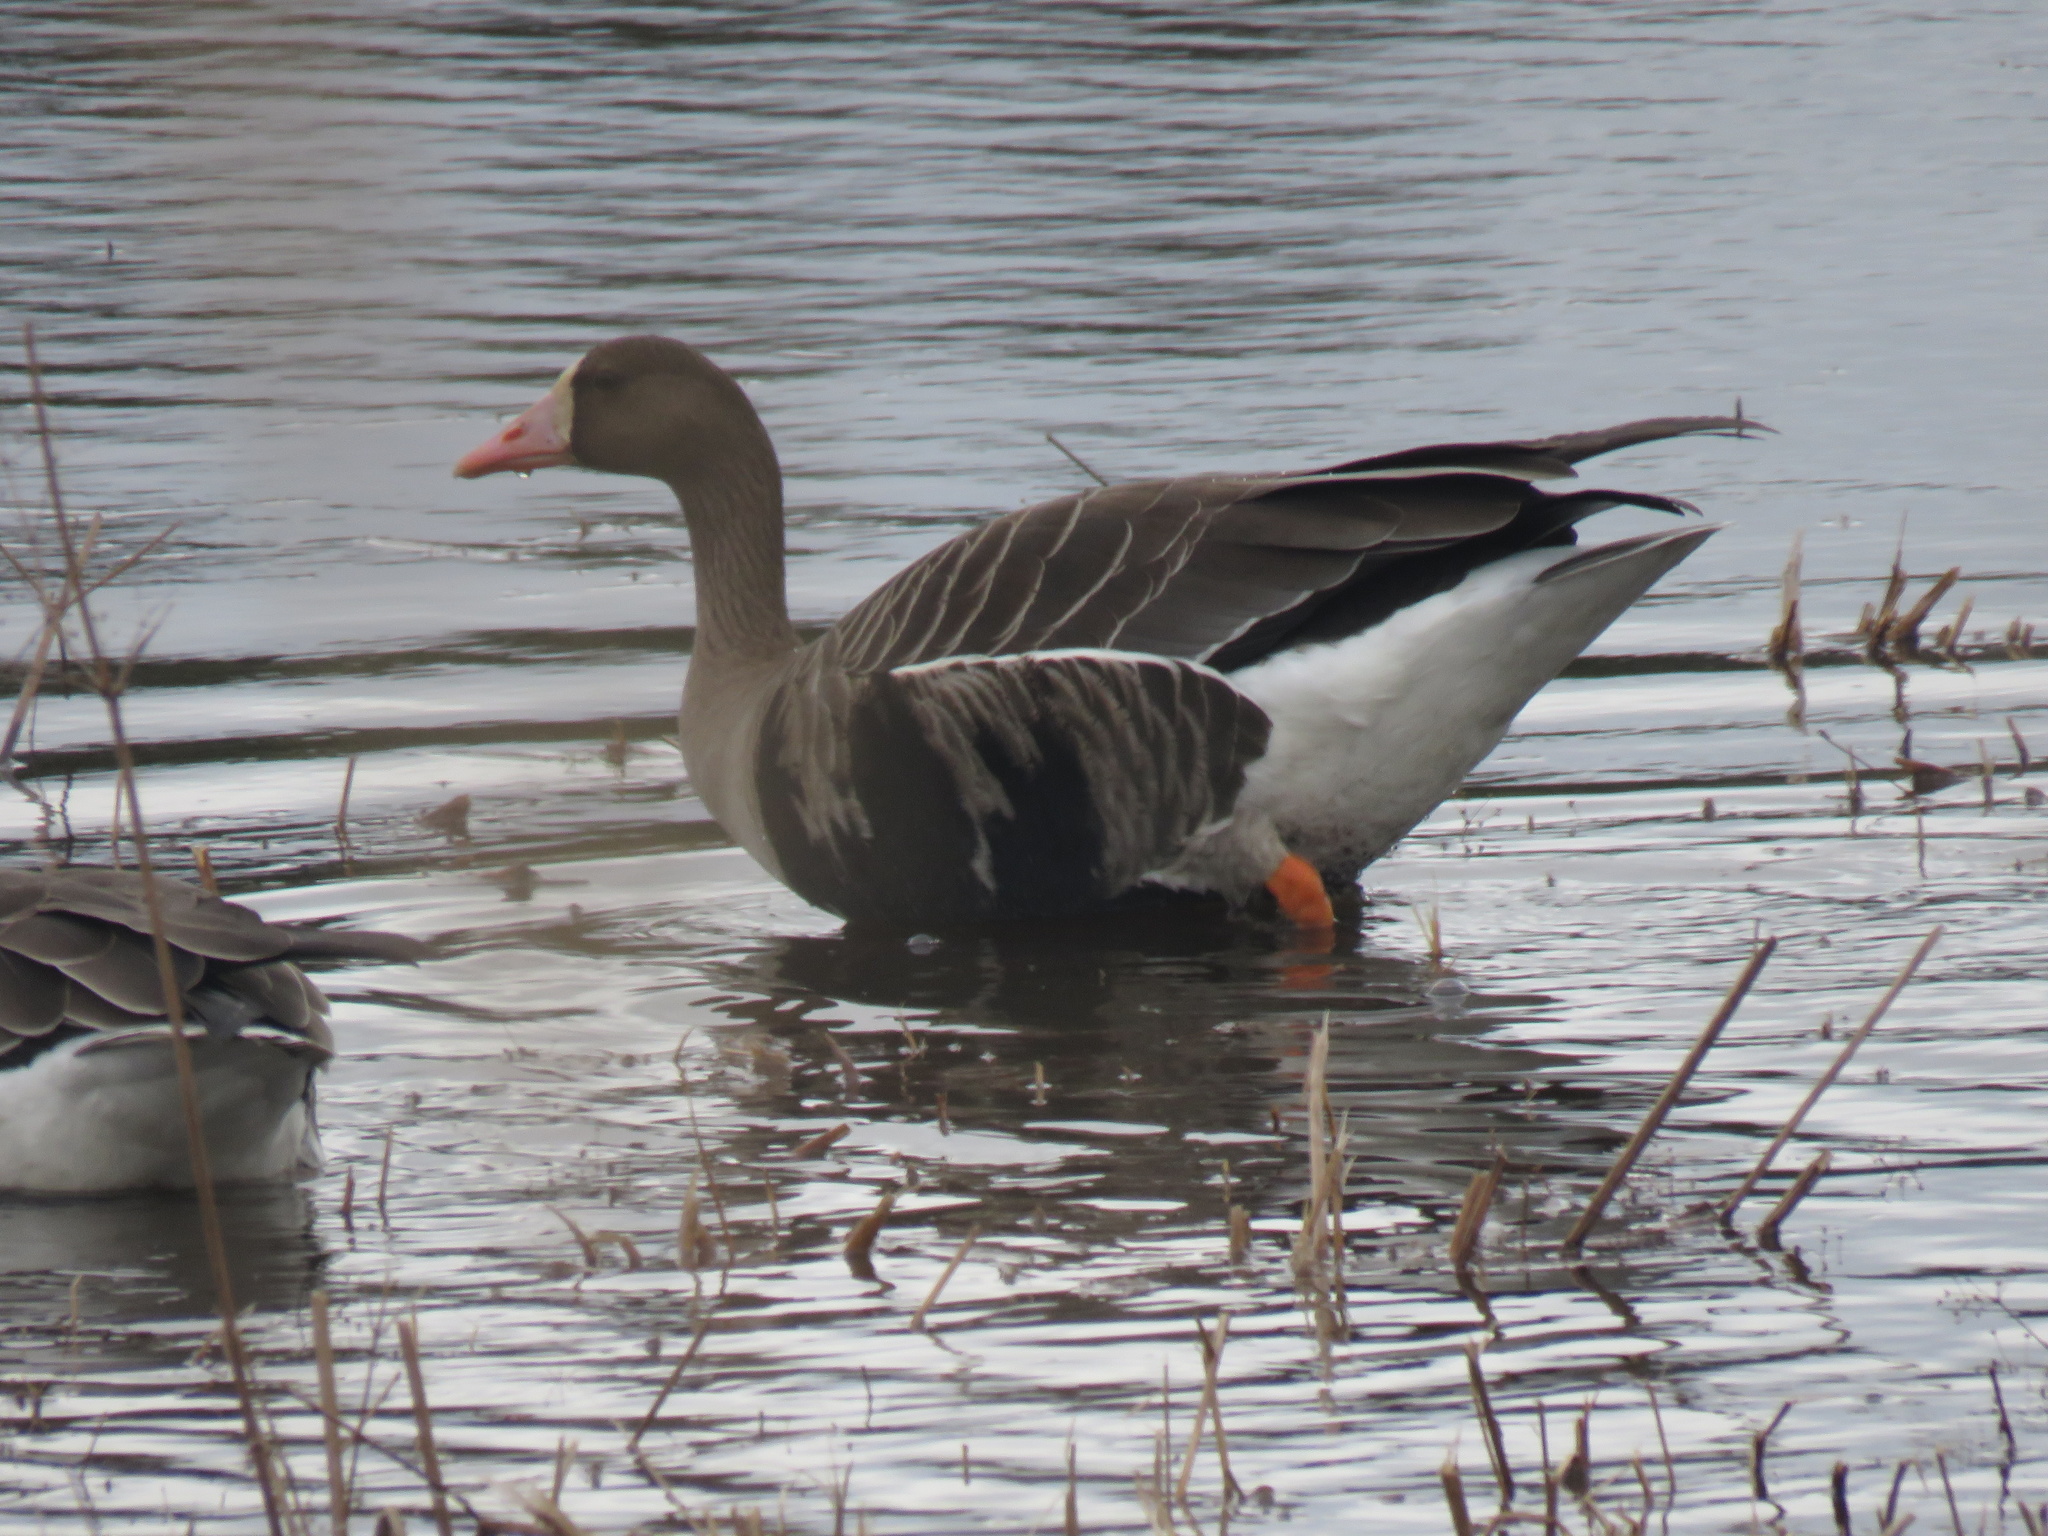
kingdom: Animalia
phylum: Chordata
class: Aves
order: Anseriformes
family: Anatidae
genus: Anser
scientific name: Anser albifrons
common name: Greater white-fronted goose
